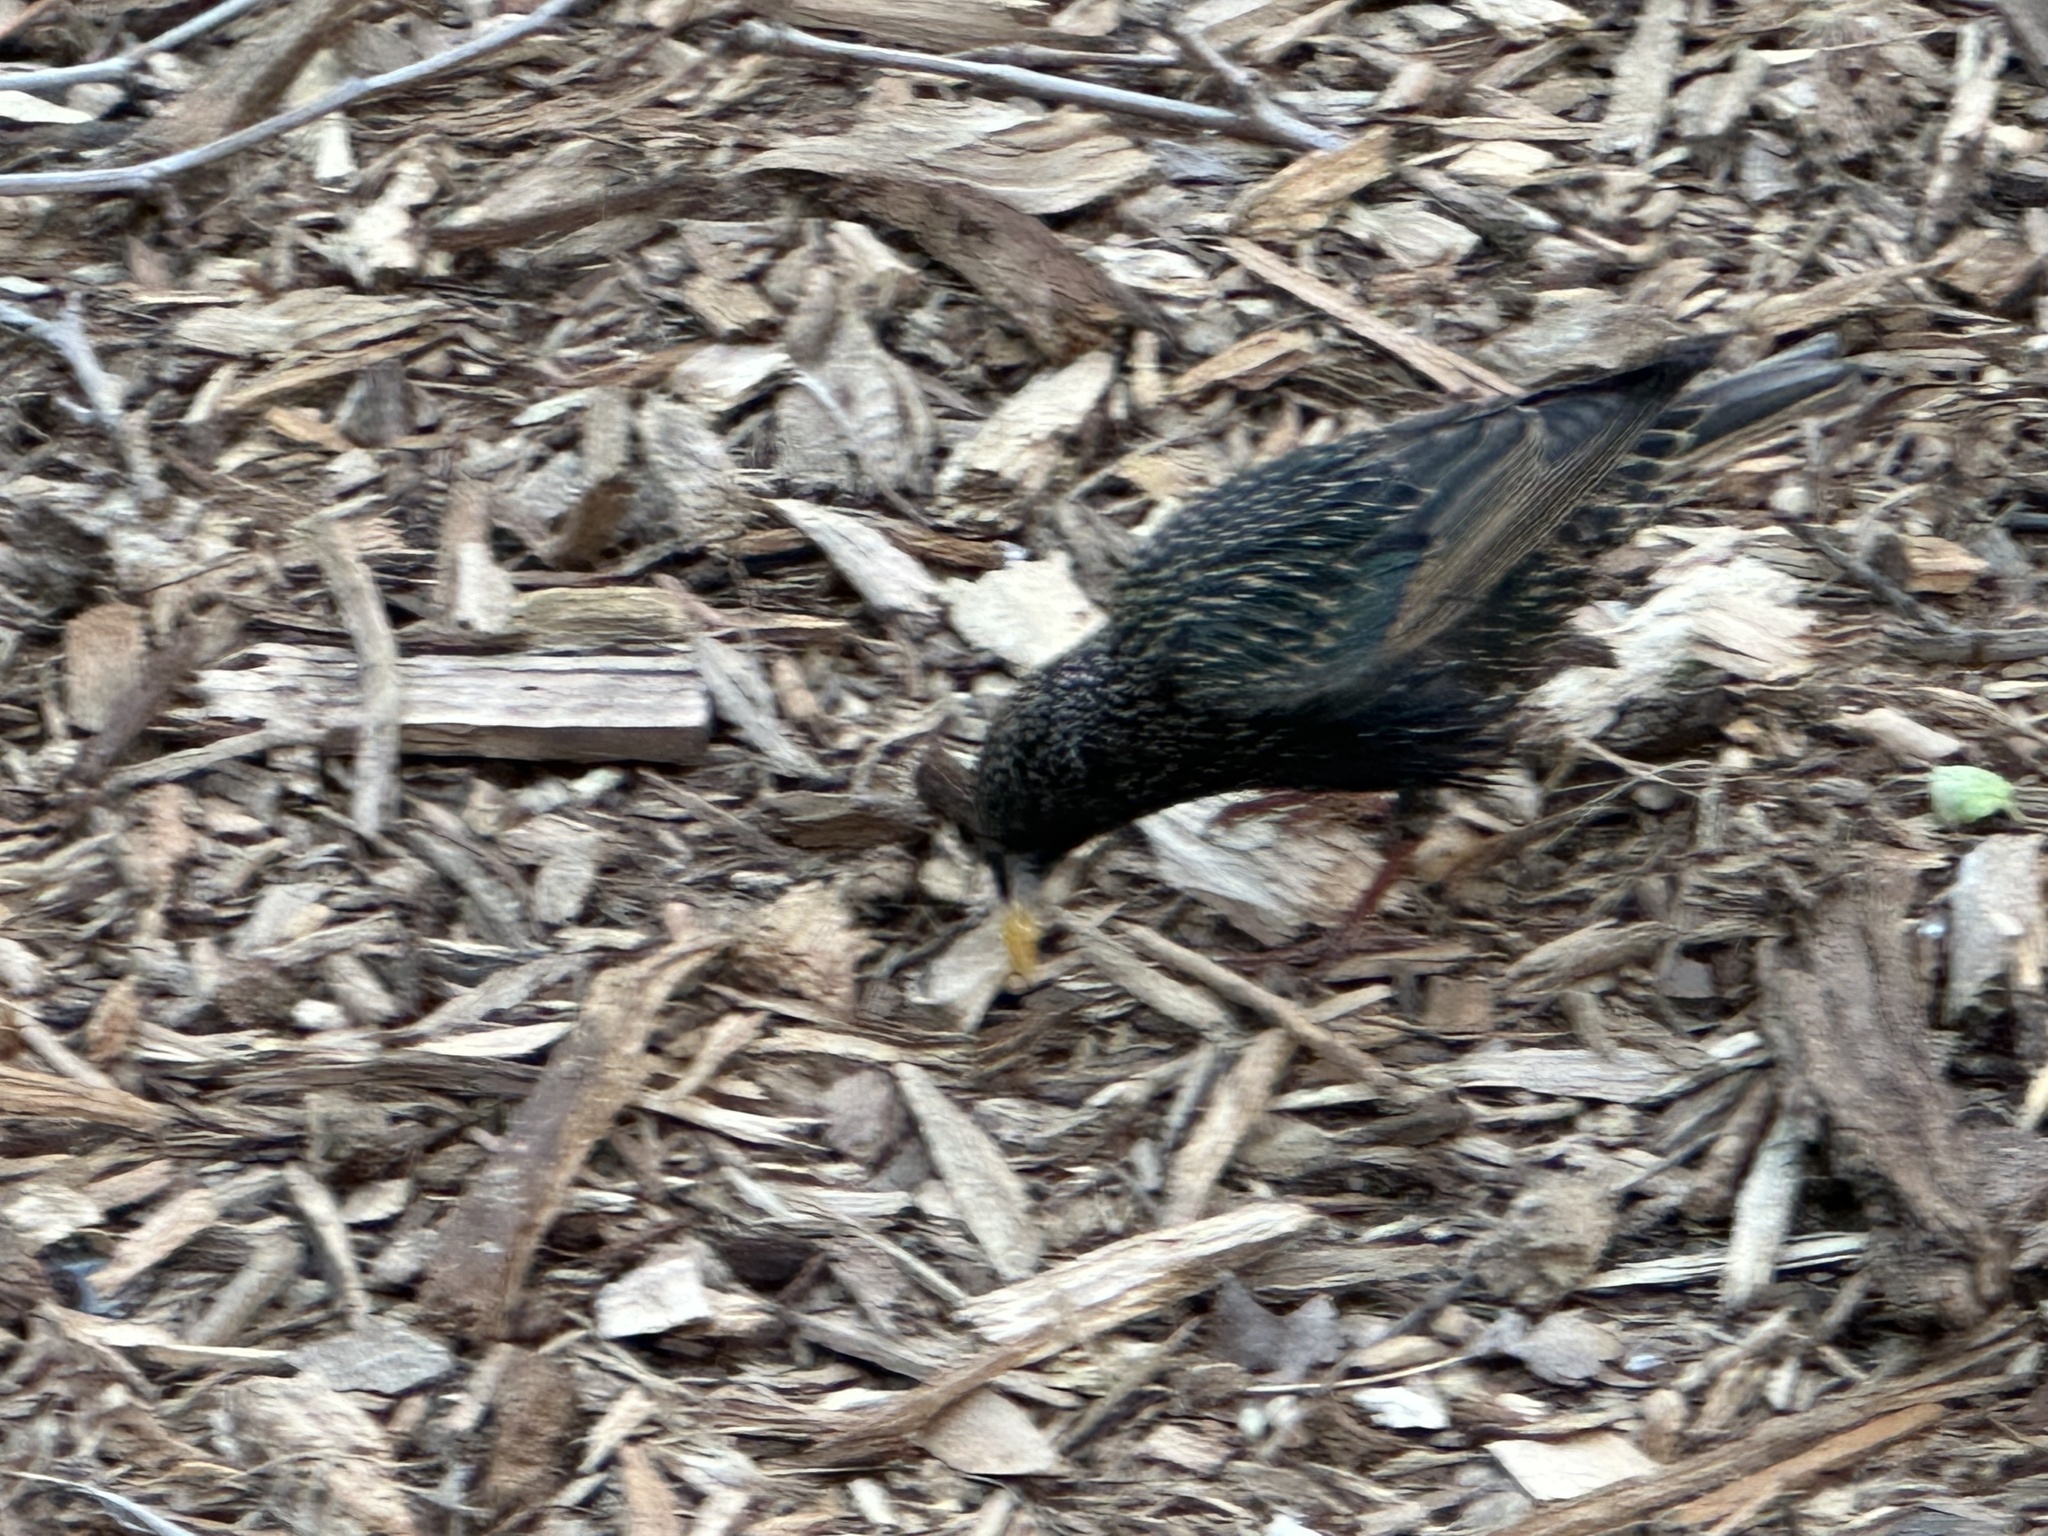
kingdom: Animalia
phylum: Chordata
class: Aves
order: Passeriformes
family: Sturnidae
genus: Sturnus
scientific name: Sturnus vulgaris
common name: Common starling
